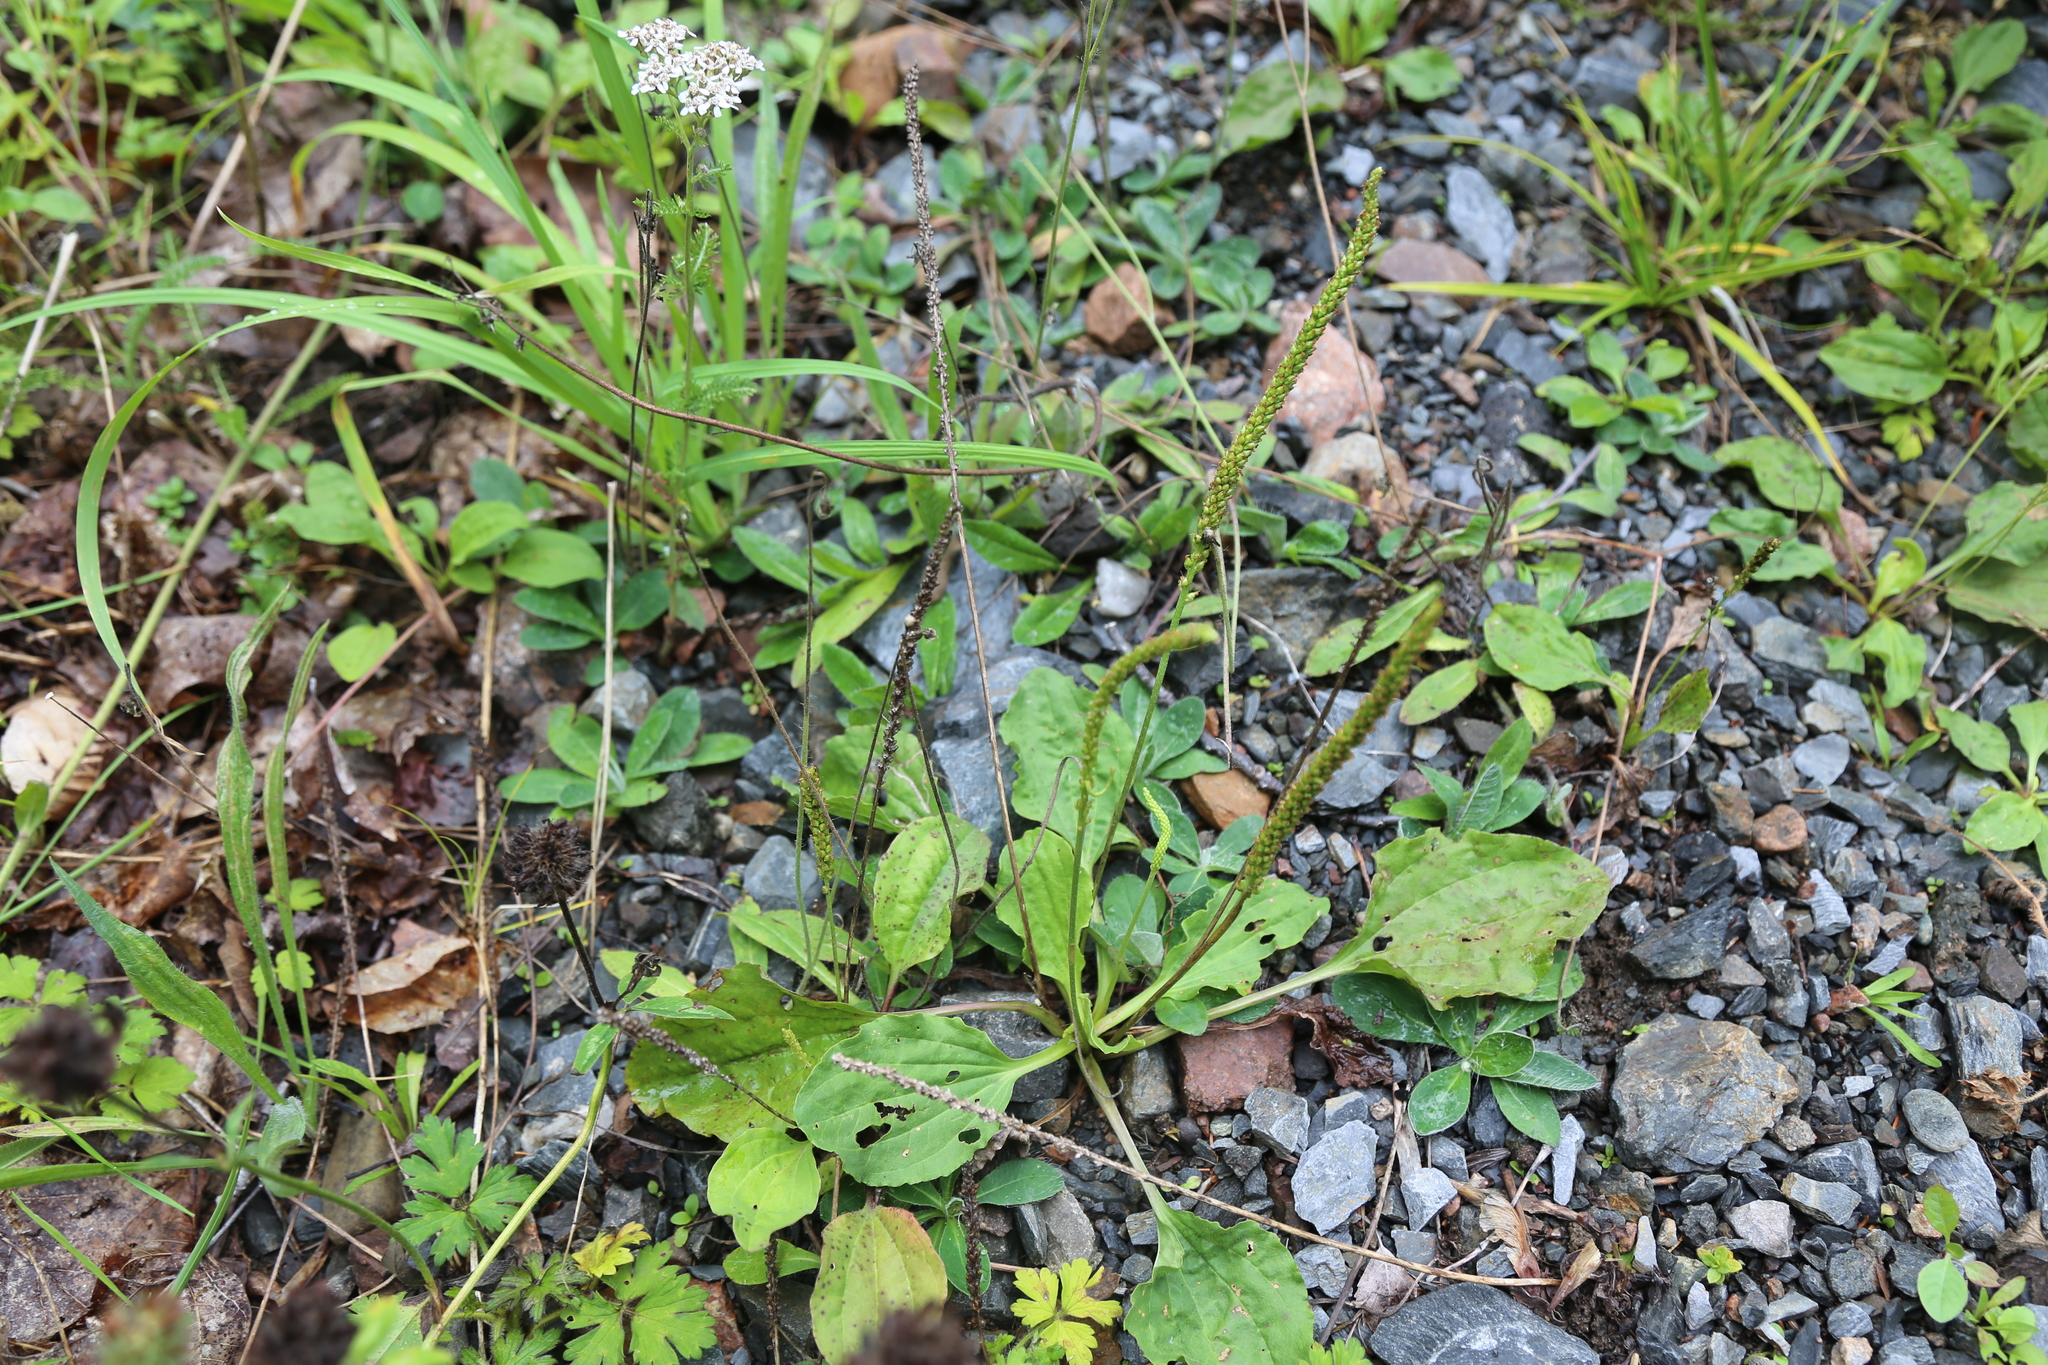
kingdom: Plantae
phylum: Tracheophyta
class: Magnoliopsida
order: Lamiales
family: Plantaginaceae
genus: Plantago
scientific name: Plantago major
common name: Common plantain
